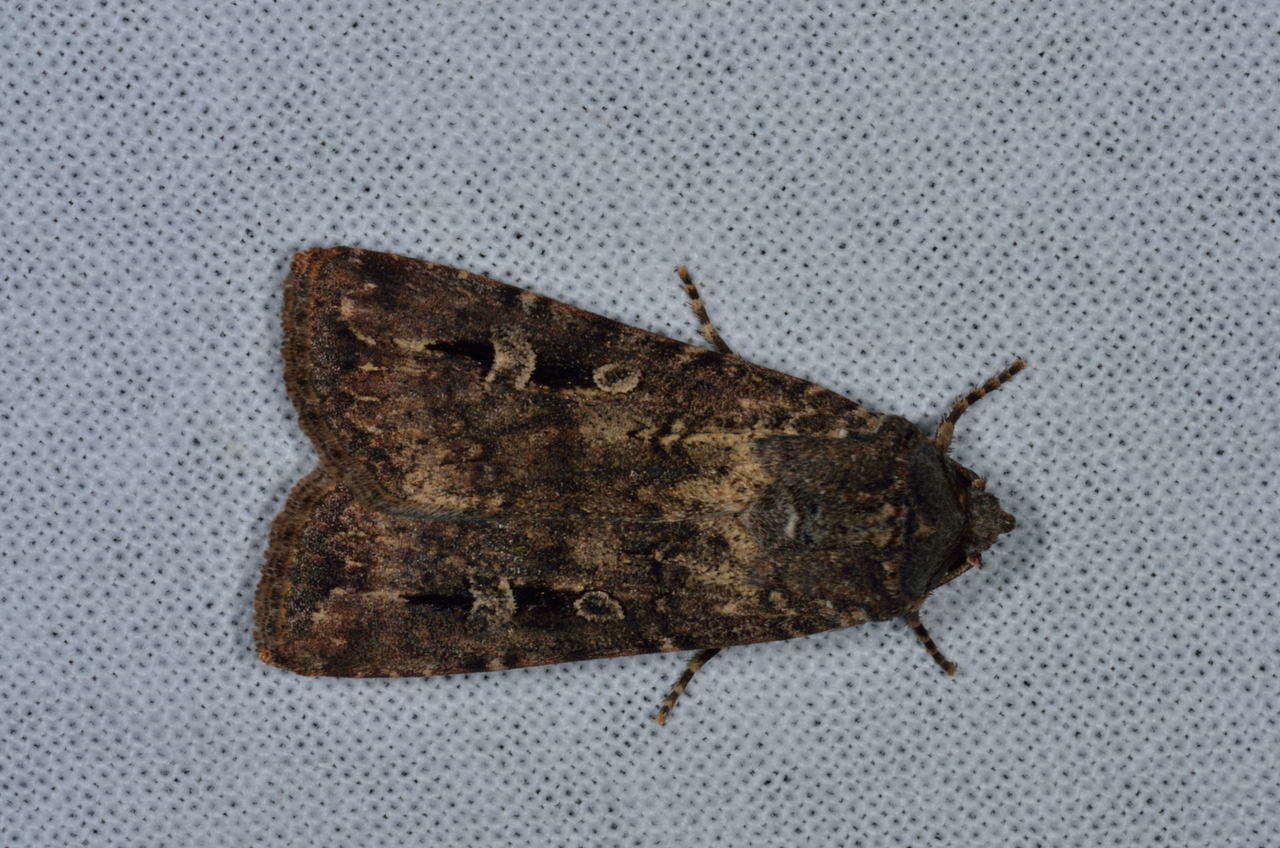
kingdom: Animalia
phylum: Arthropoda
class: Insecta
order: Lepidoptera
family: Noctuidae
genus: Agrotis
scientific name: Agrotis infusa
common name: Bogong moth
